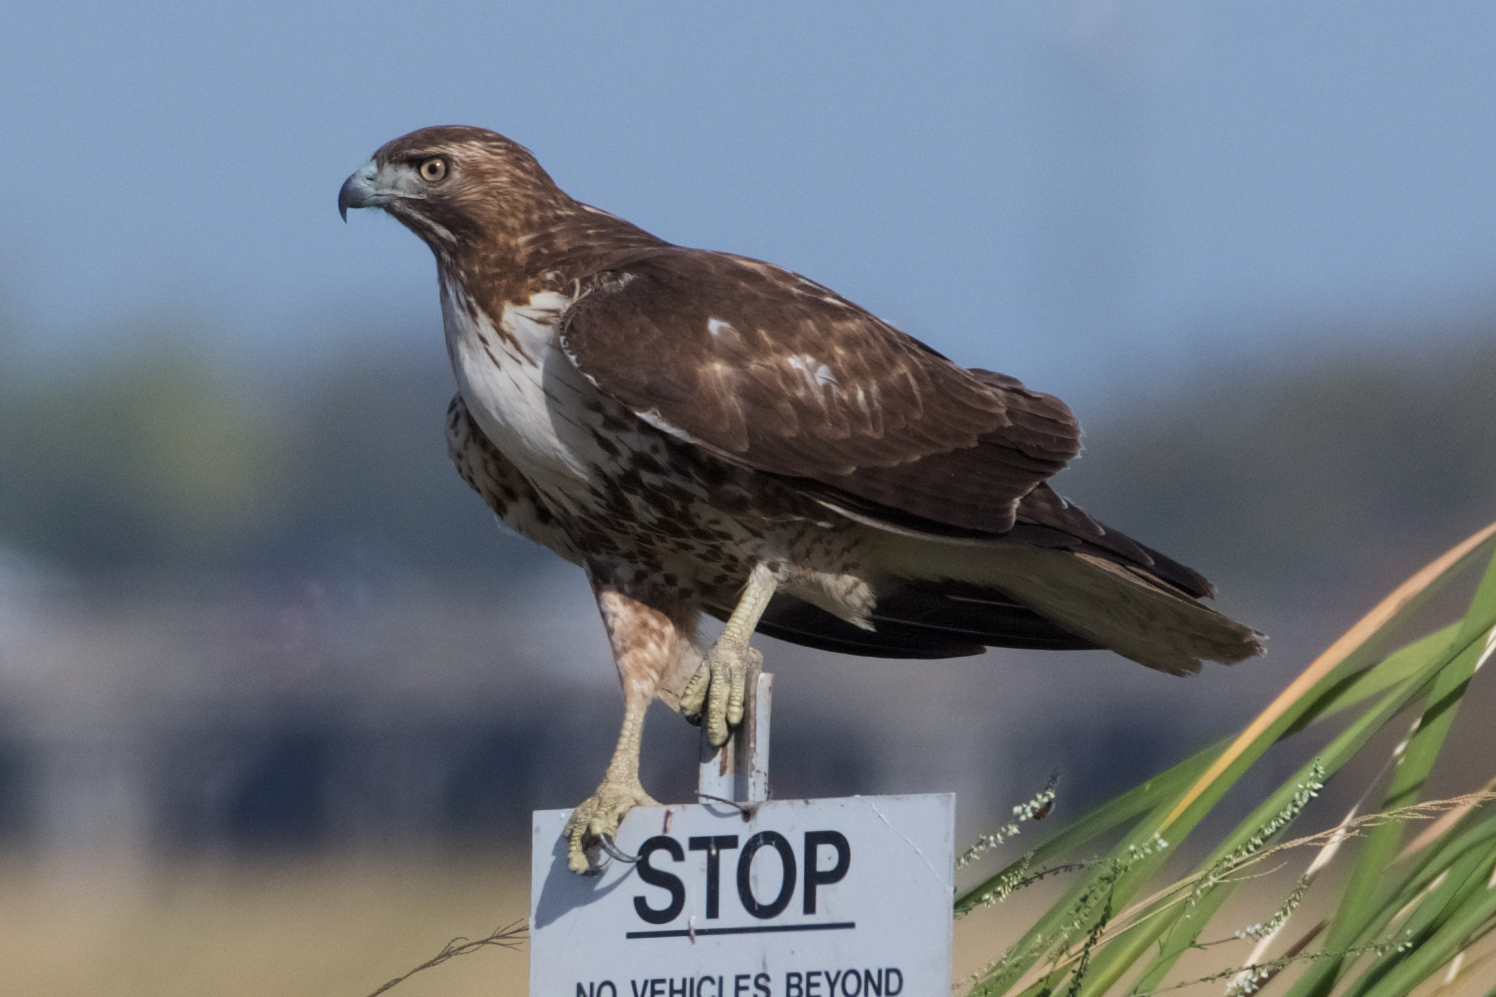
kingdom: Animalia
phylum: Chordata
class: Aves
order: Accipitriformes
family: Accipitridae
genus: Buteo
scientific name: Buteo jamaicensis
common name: Red-tailed hawk
